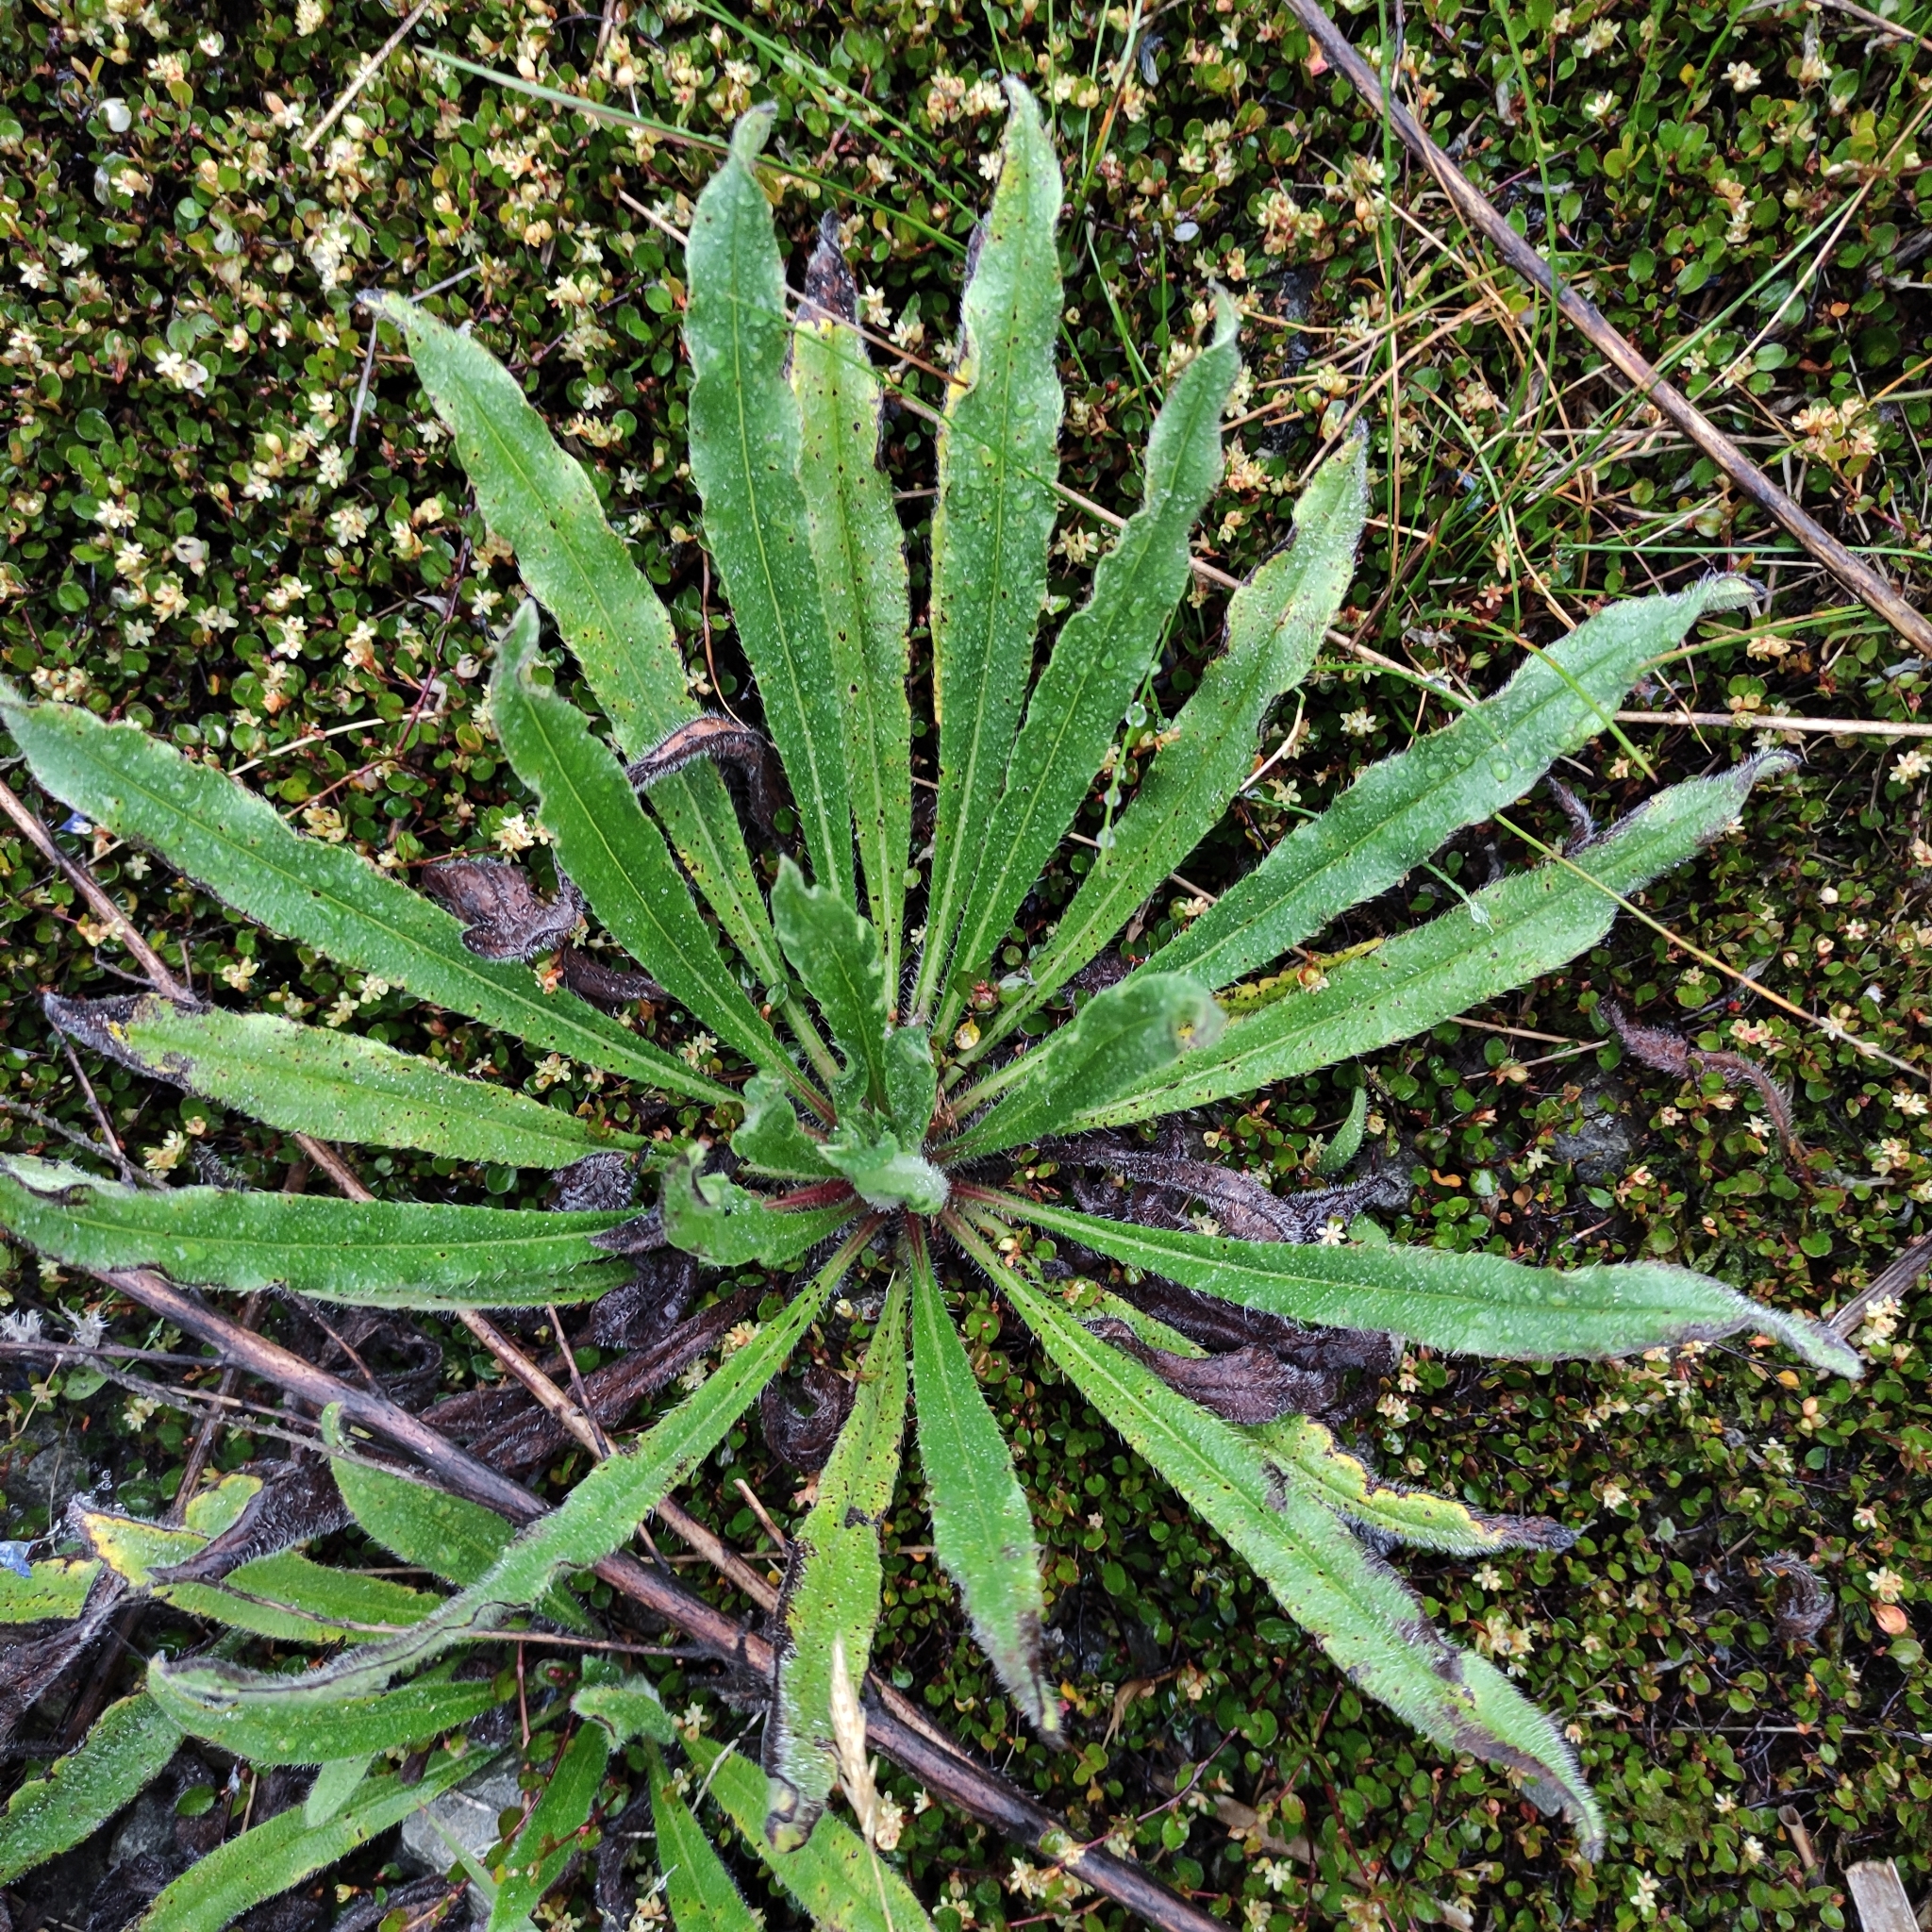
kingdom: Plantae
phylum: Tracheophyta
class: Magnoliopsida
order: Boraginales
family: Boraginaceae
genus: Echium
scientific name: Echium vulgare
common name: Common viper's bugloss
